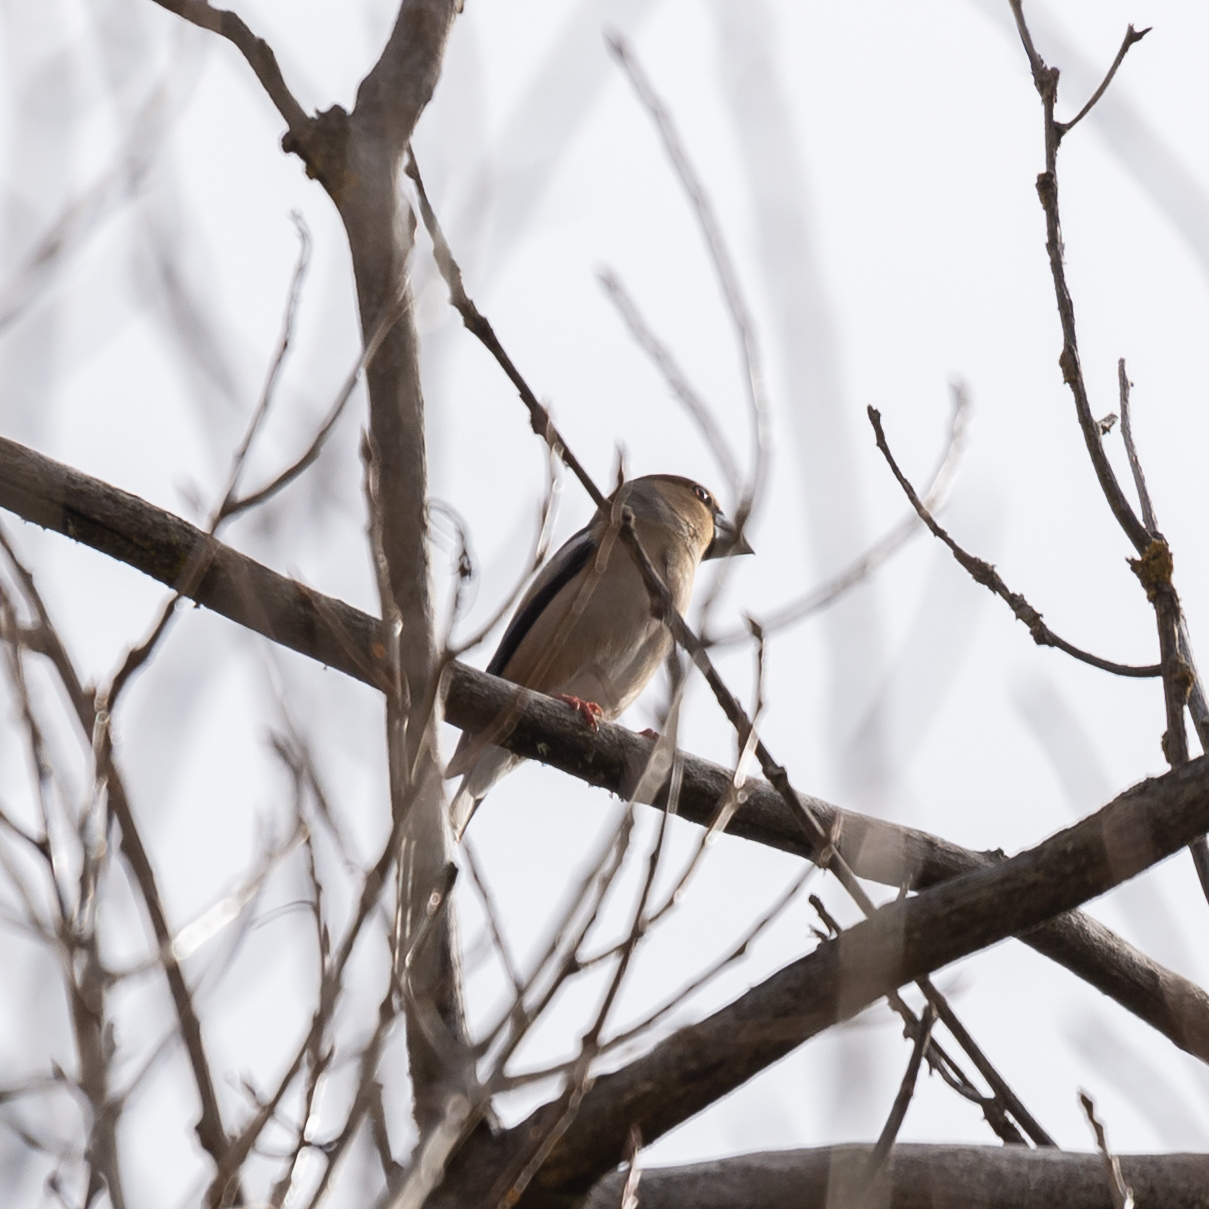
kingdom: Animalia
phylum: Chordata
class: Aves
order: Passeriformes
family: Fringillidae
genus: Coccothraustes
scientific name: Coccothraustes coccothraustes
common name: Hawfinch
